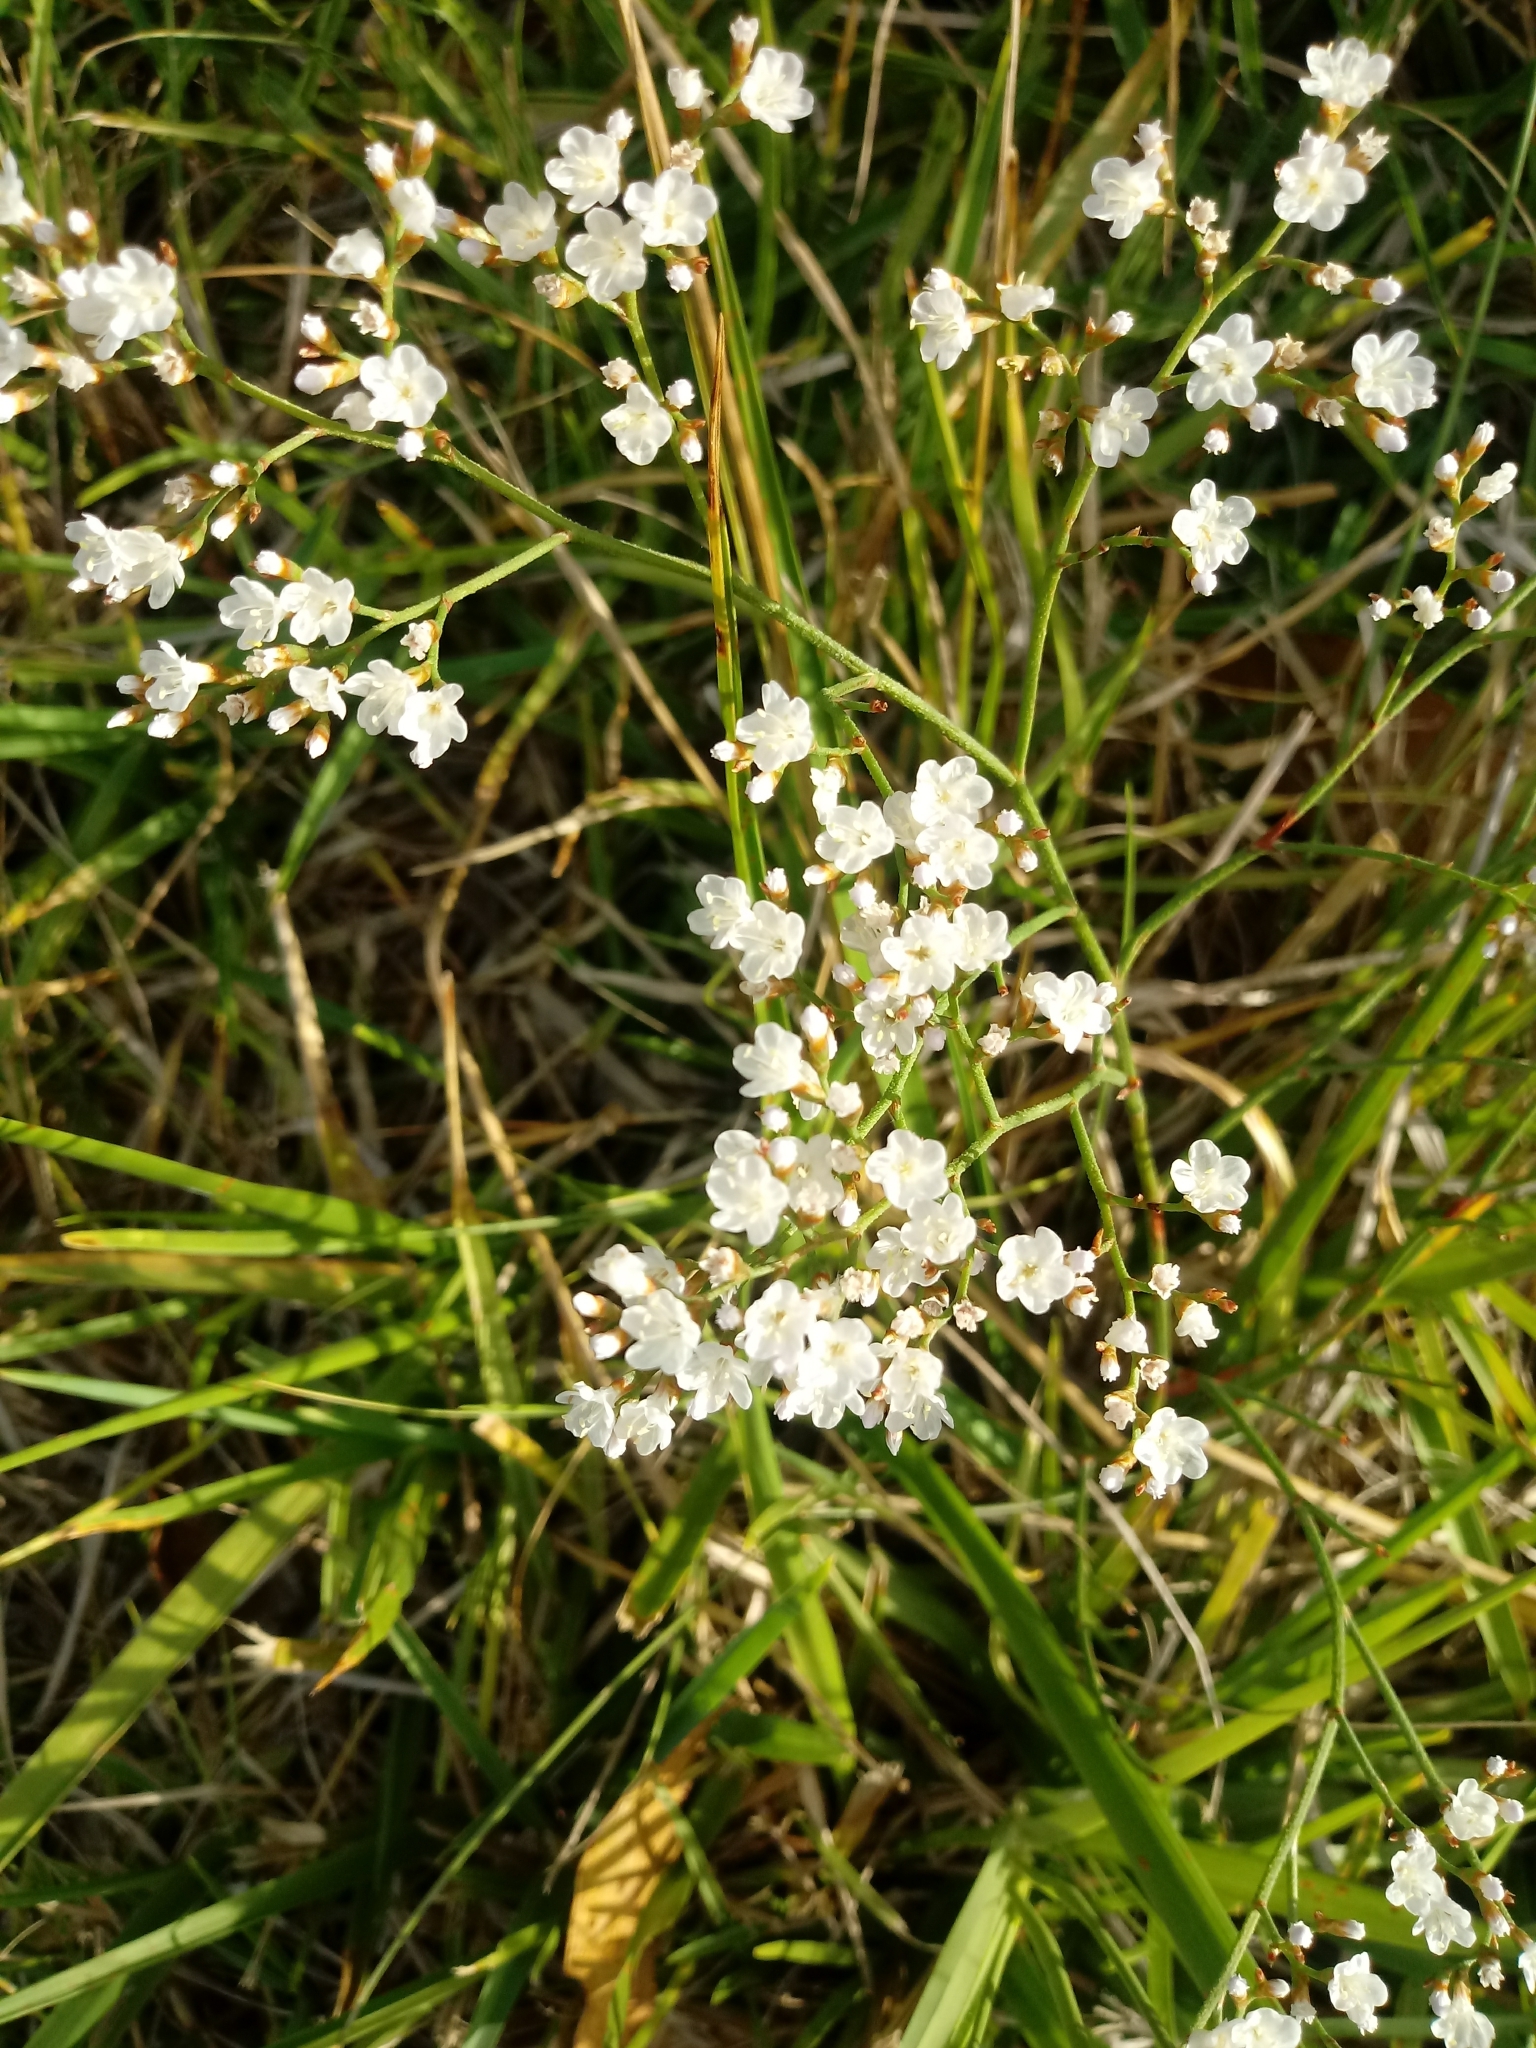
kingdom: Plantae
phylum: Tracheophyta
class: Magnoliopsida
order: Caryophyllales
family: Plumbaginaceae
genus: Limonium
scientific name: Limonium brasiliense
